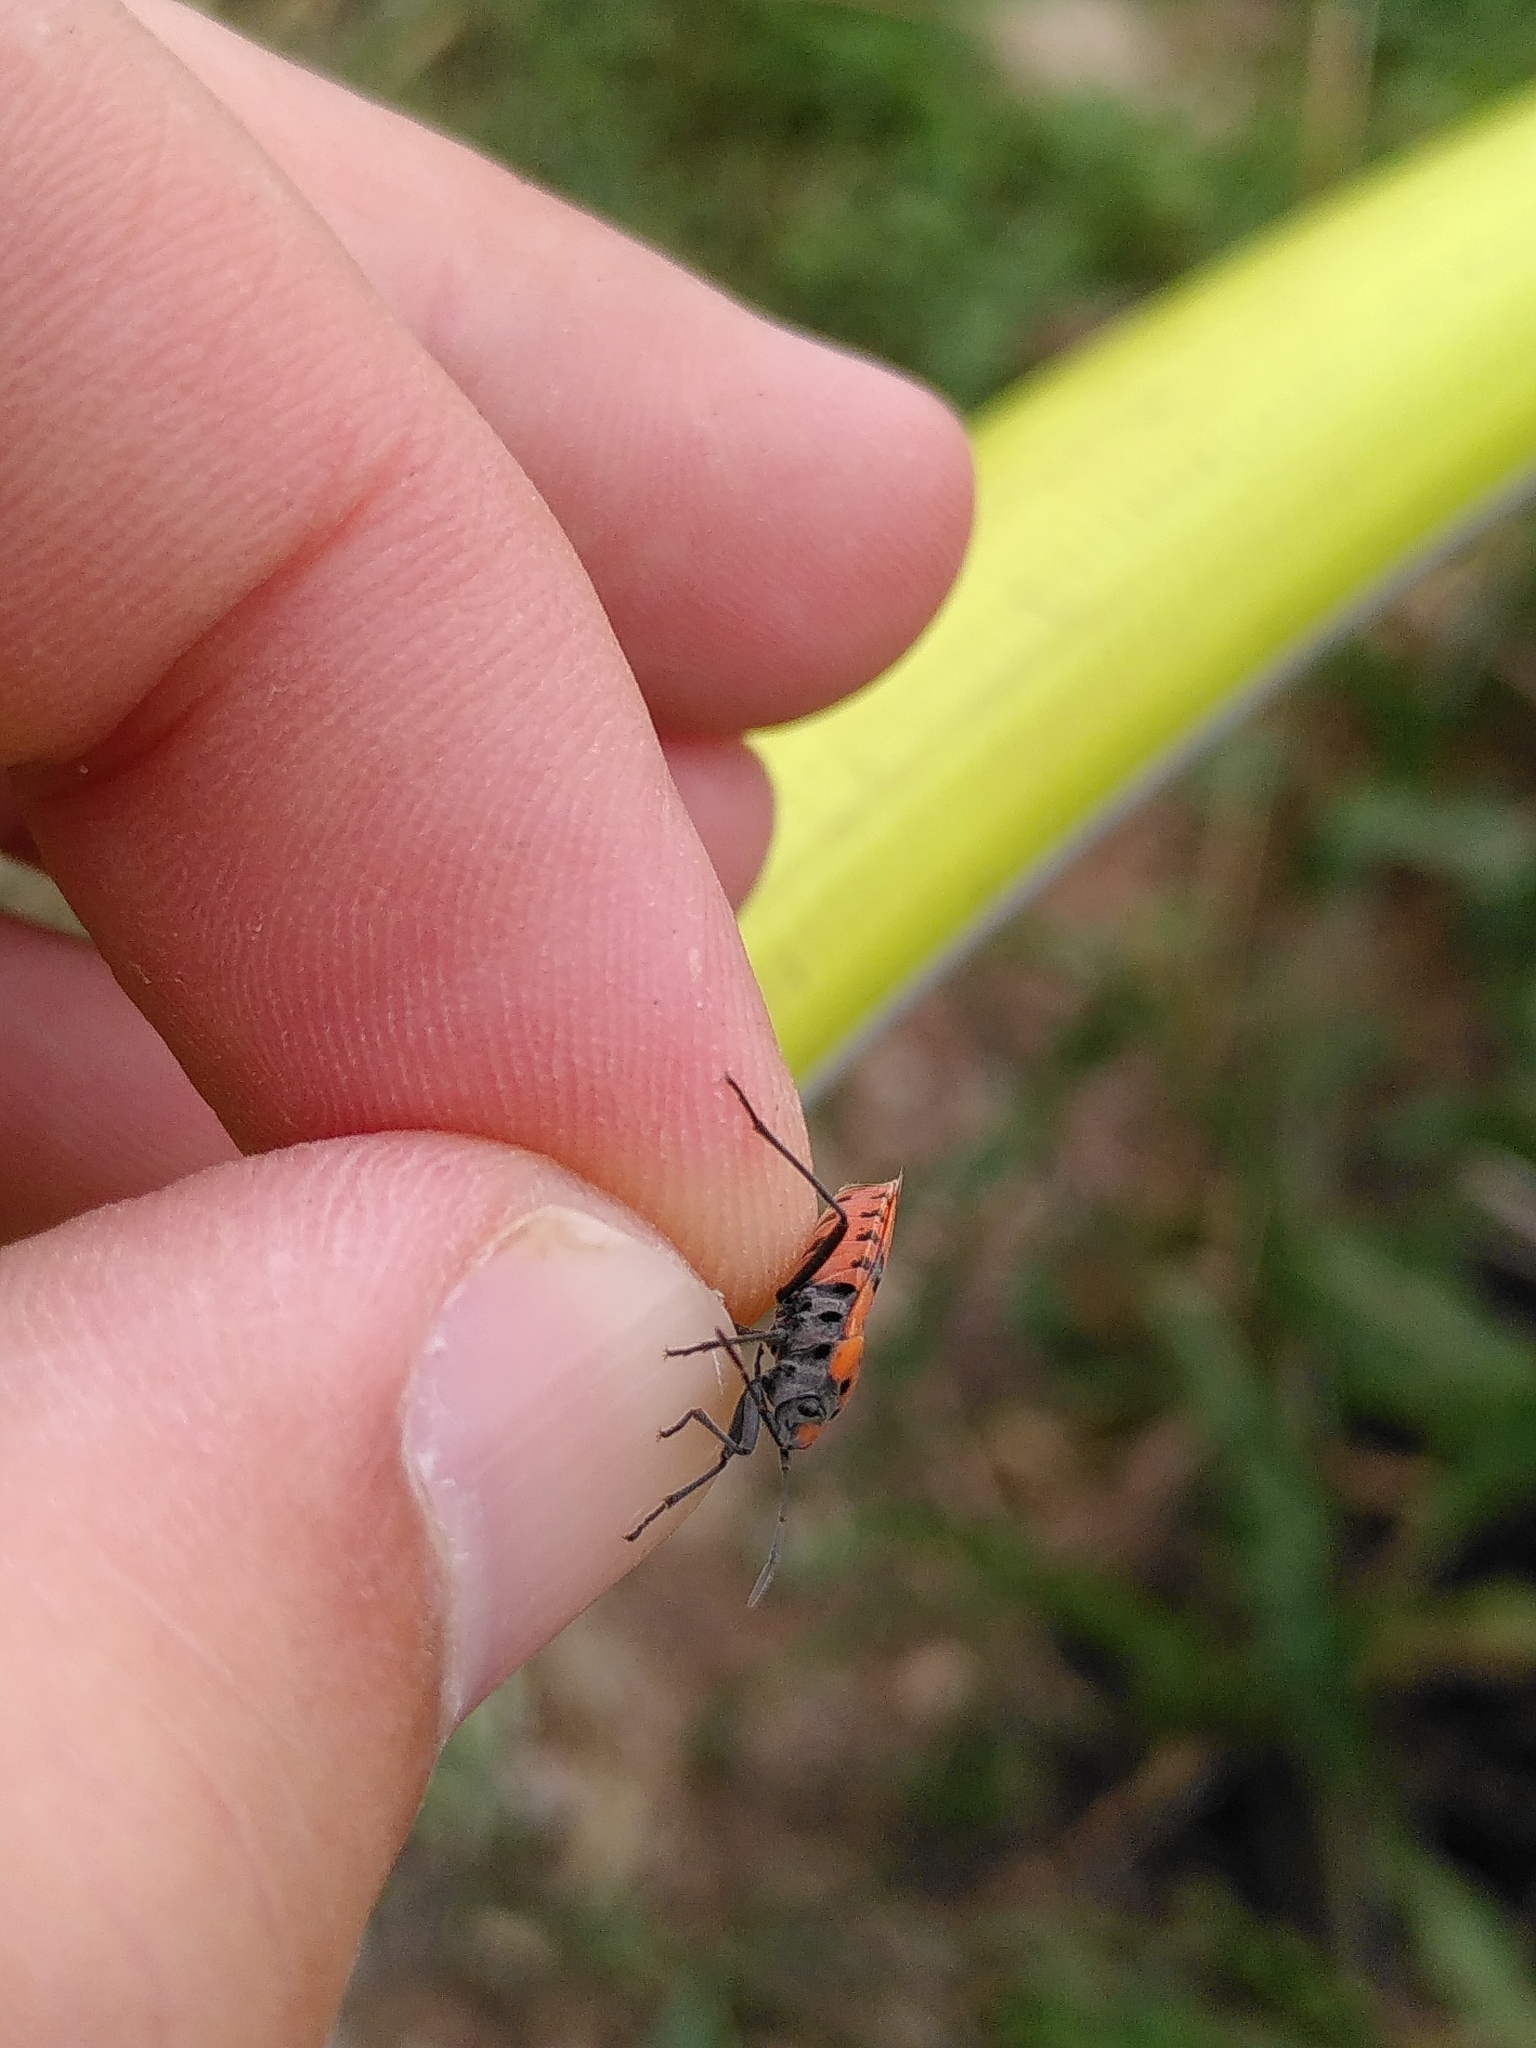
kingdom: Animalia
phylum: Arthropoda
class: Insecta
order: Hemiptera
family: Lygaeidae
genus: Lygaeus
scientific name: Lygaeus equestris
